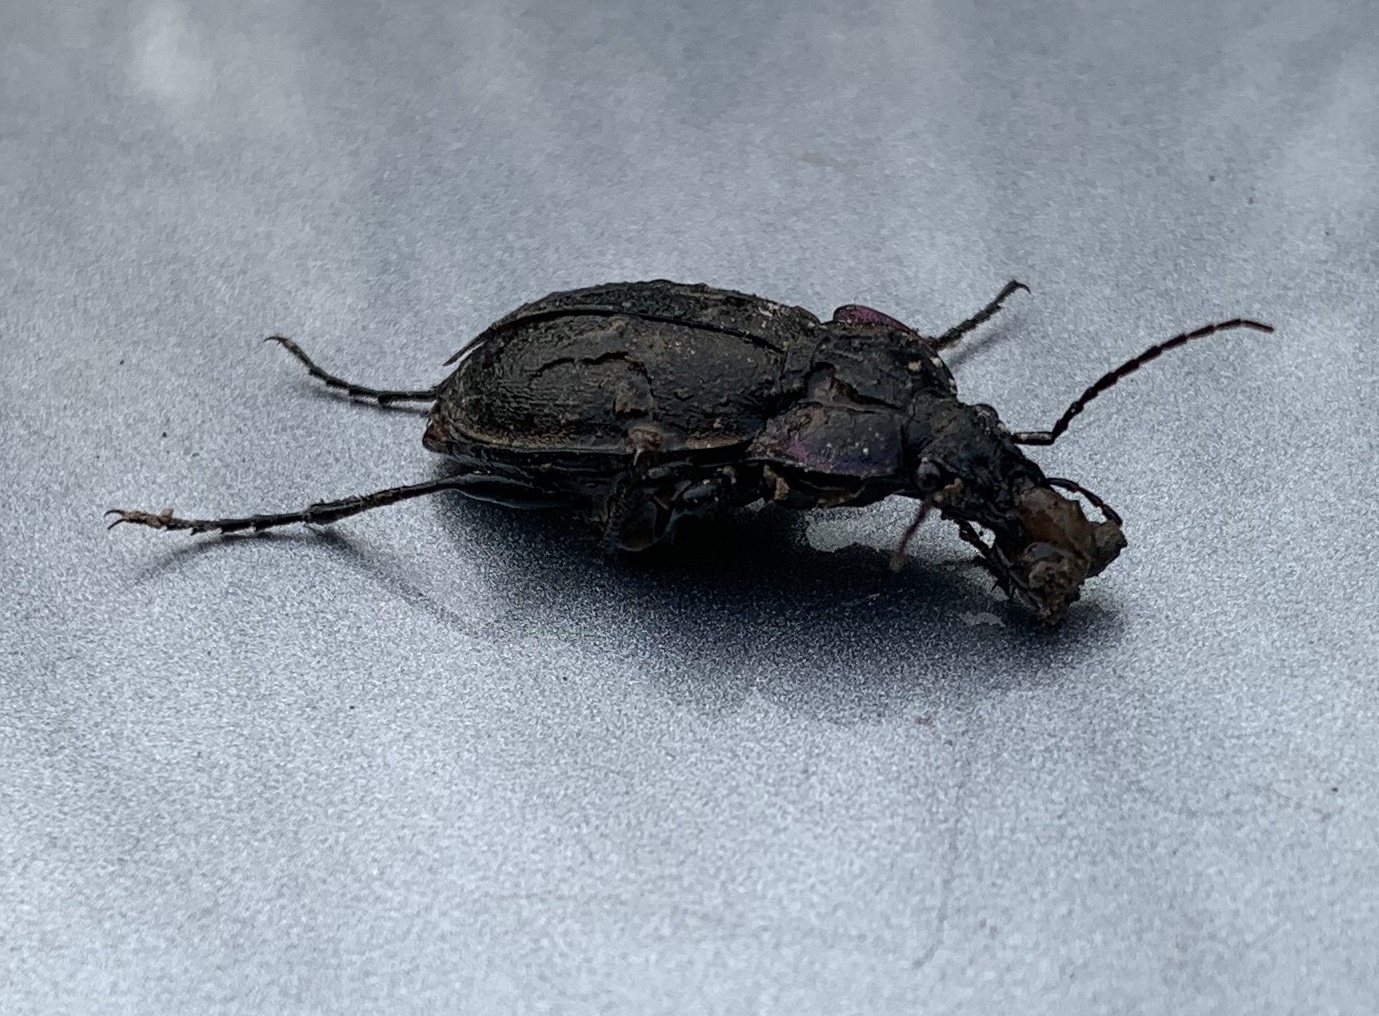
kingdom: Animalia
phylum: Arthropoda
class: Insecta
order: Coleoptera
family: Carabidae
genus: Carabus
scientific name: Carabus nemoralis
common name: European ground beetle
